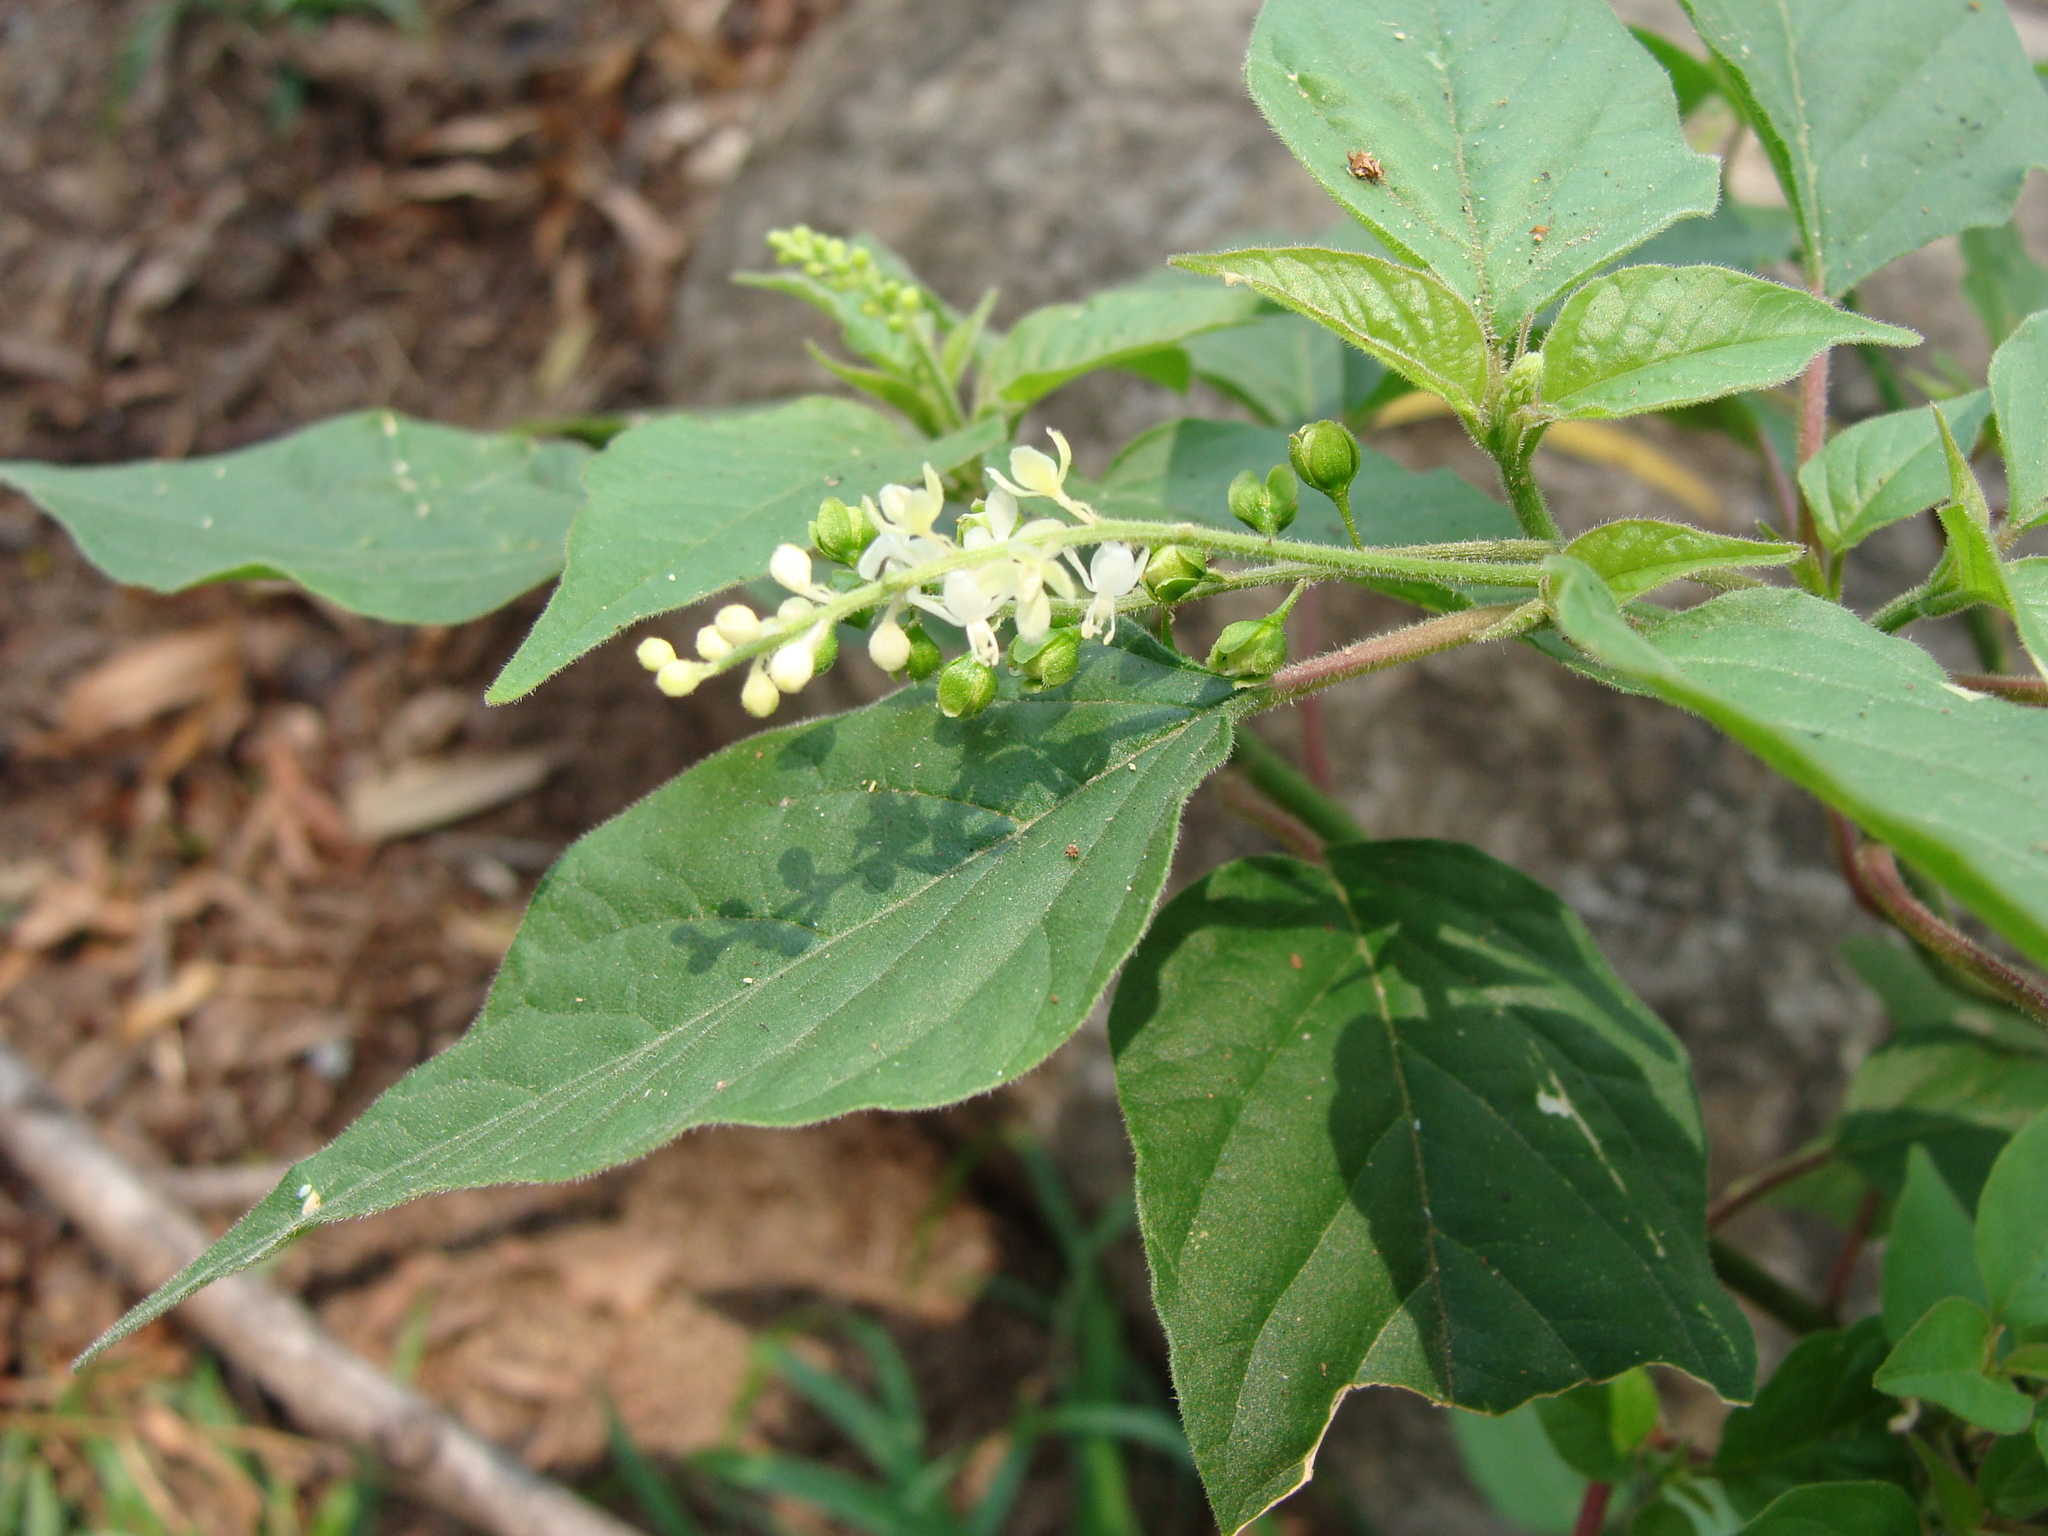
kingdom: Plantae
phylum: Tracheophyta
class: Magnoliopsida
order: Caryophyllales
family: Phytolaccaceae
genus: Rivina
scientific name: Rivina humilis
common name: Rougeplant
